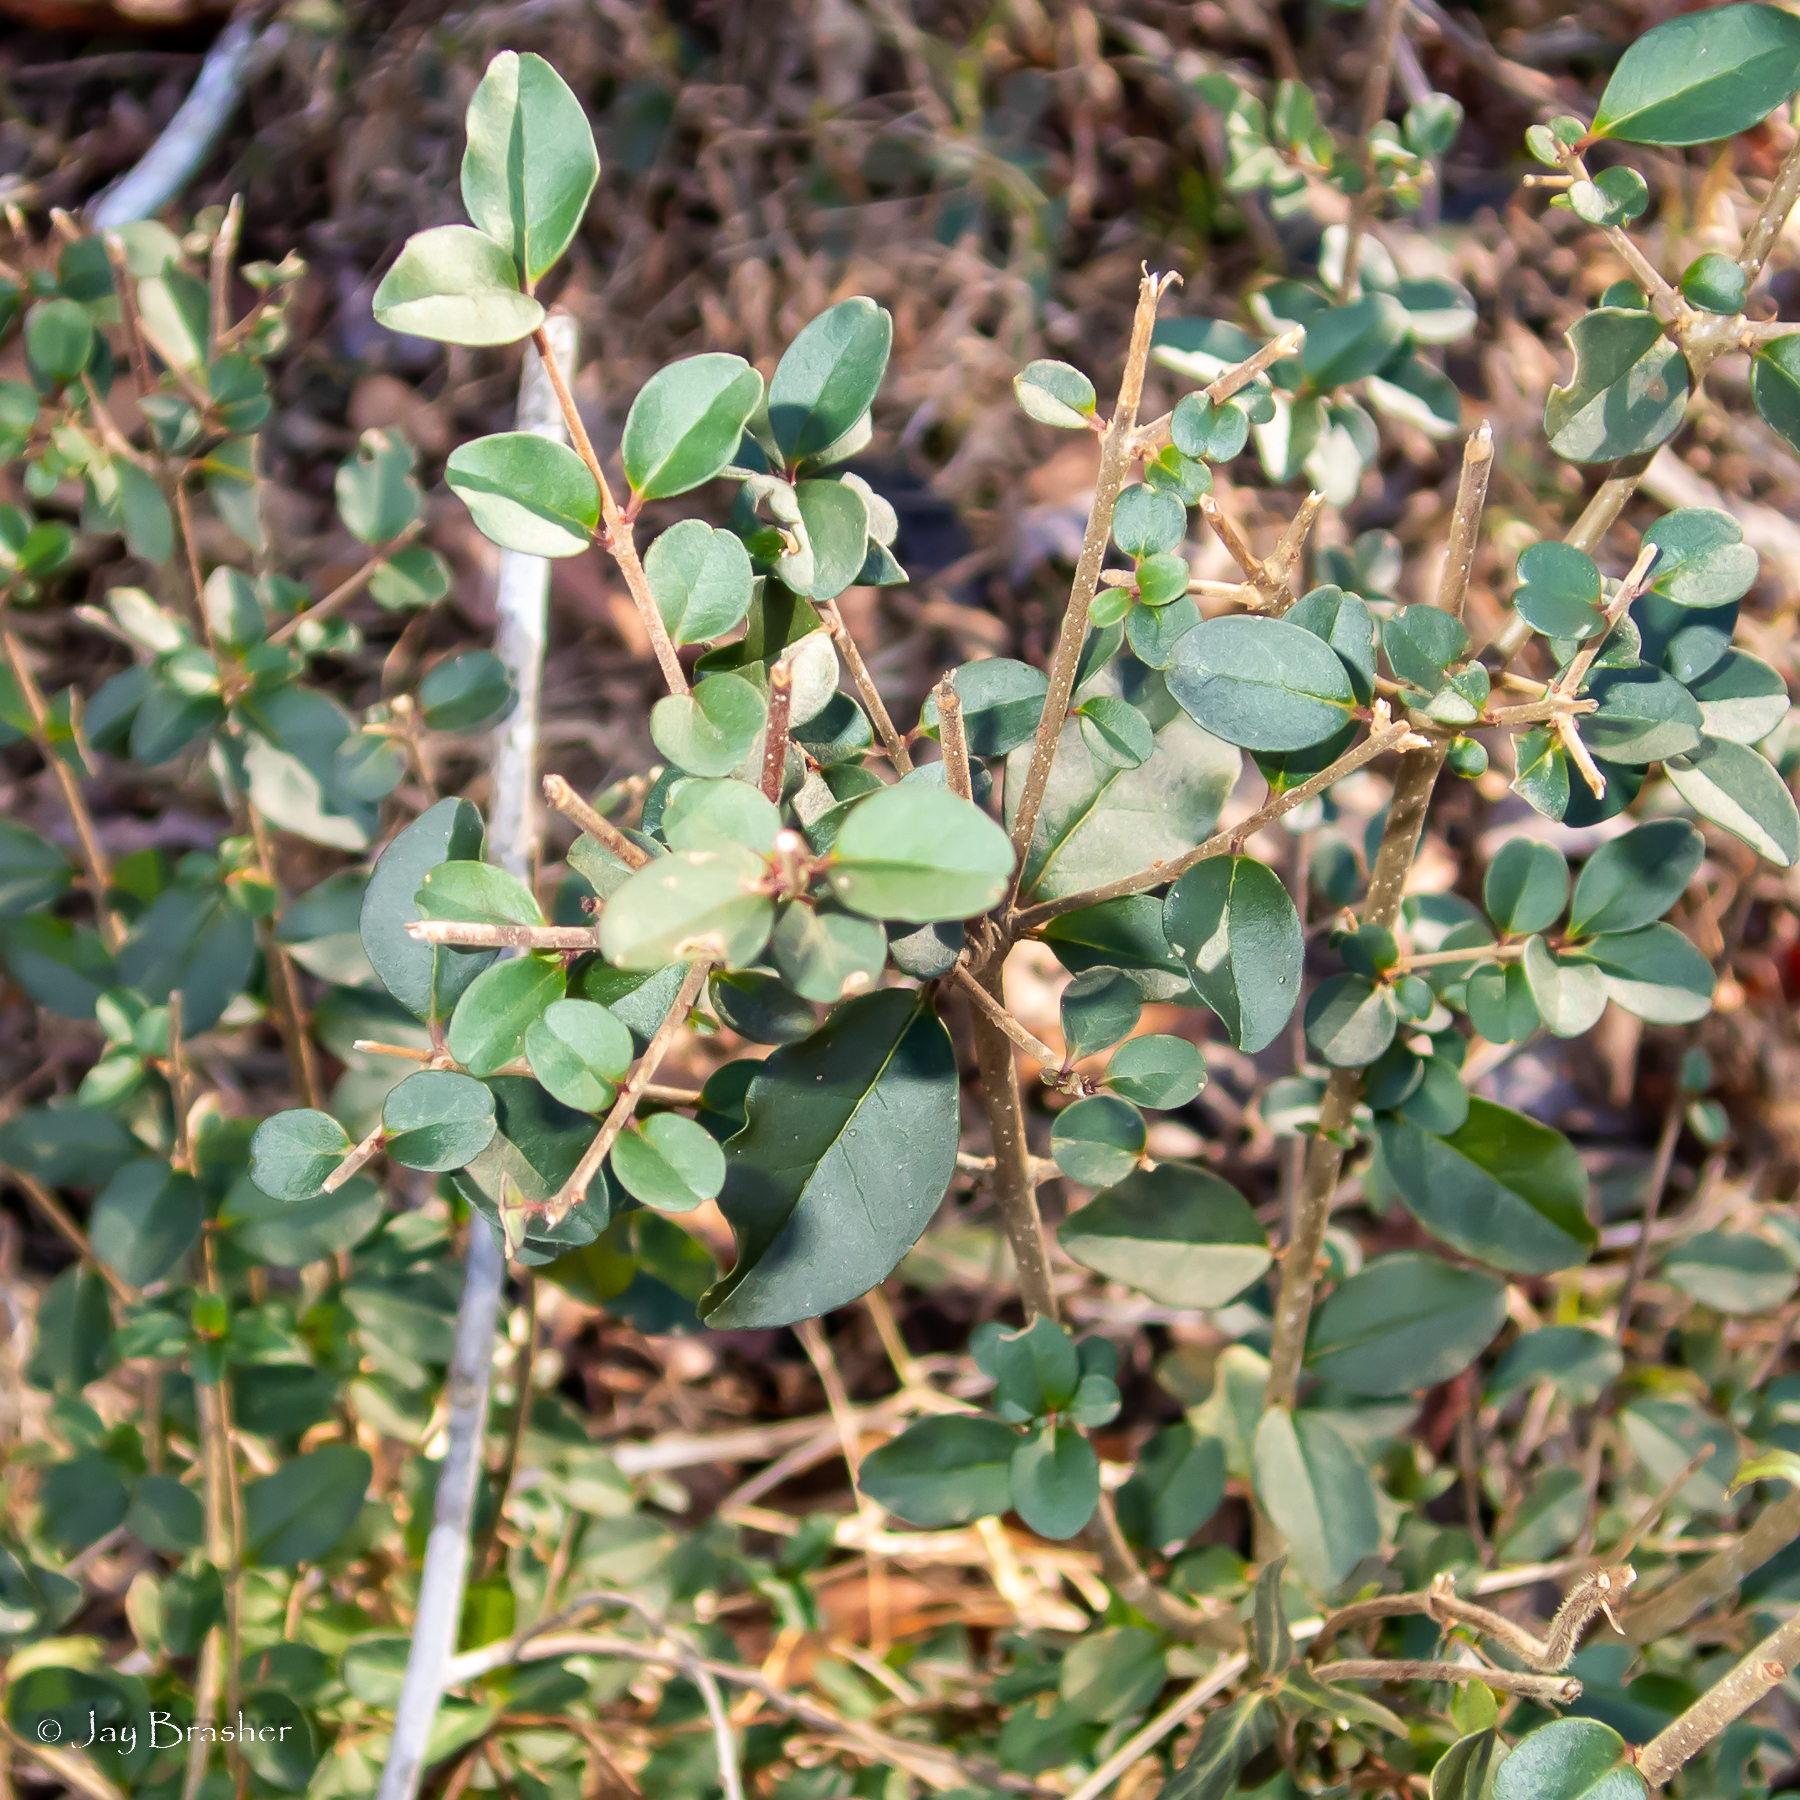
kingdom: Plantae
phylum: Tracheophyta
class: Magnoliopsida
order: Lamiales
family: Oleaceae
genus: Ligustrum
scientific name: Ligustrum sinense
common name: Chinese privet
